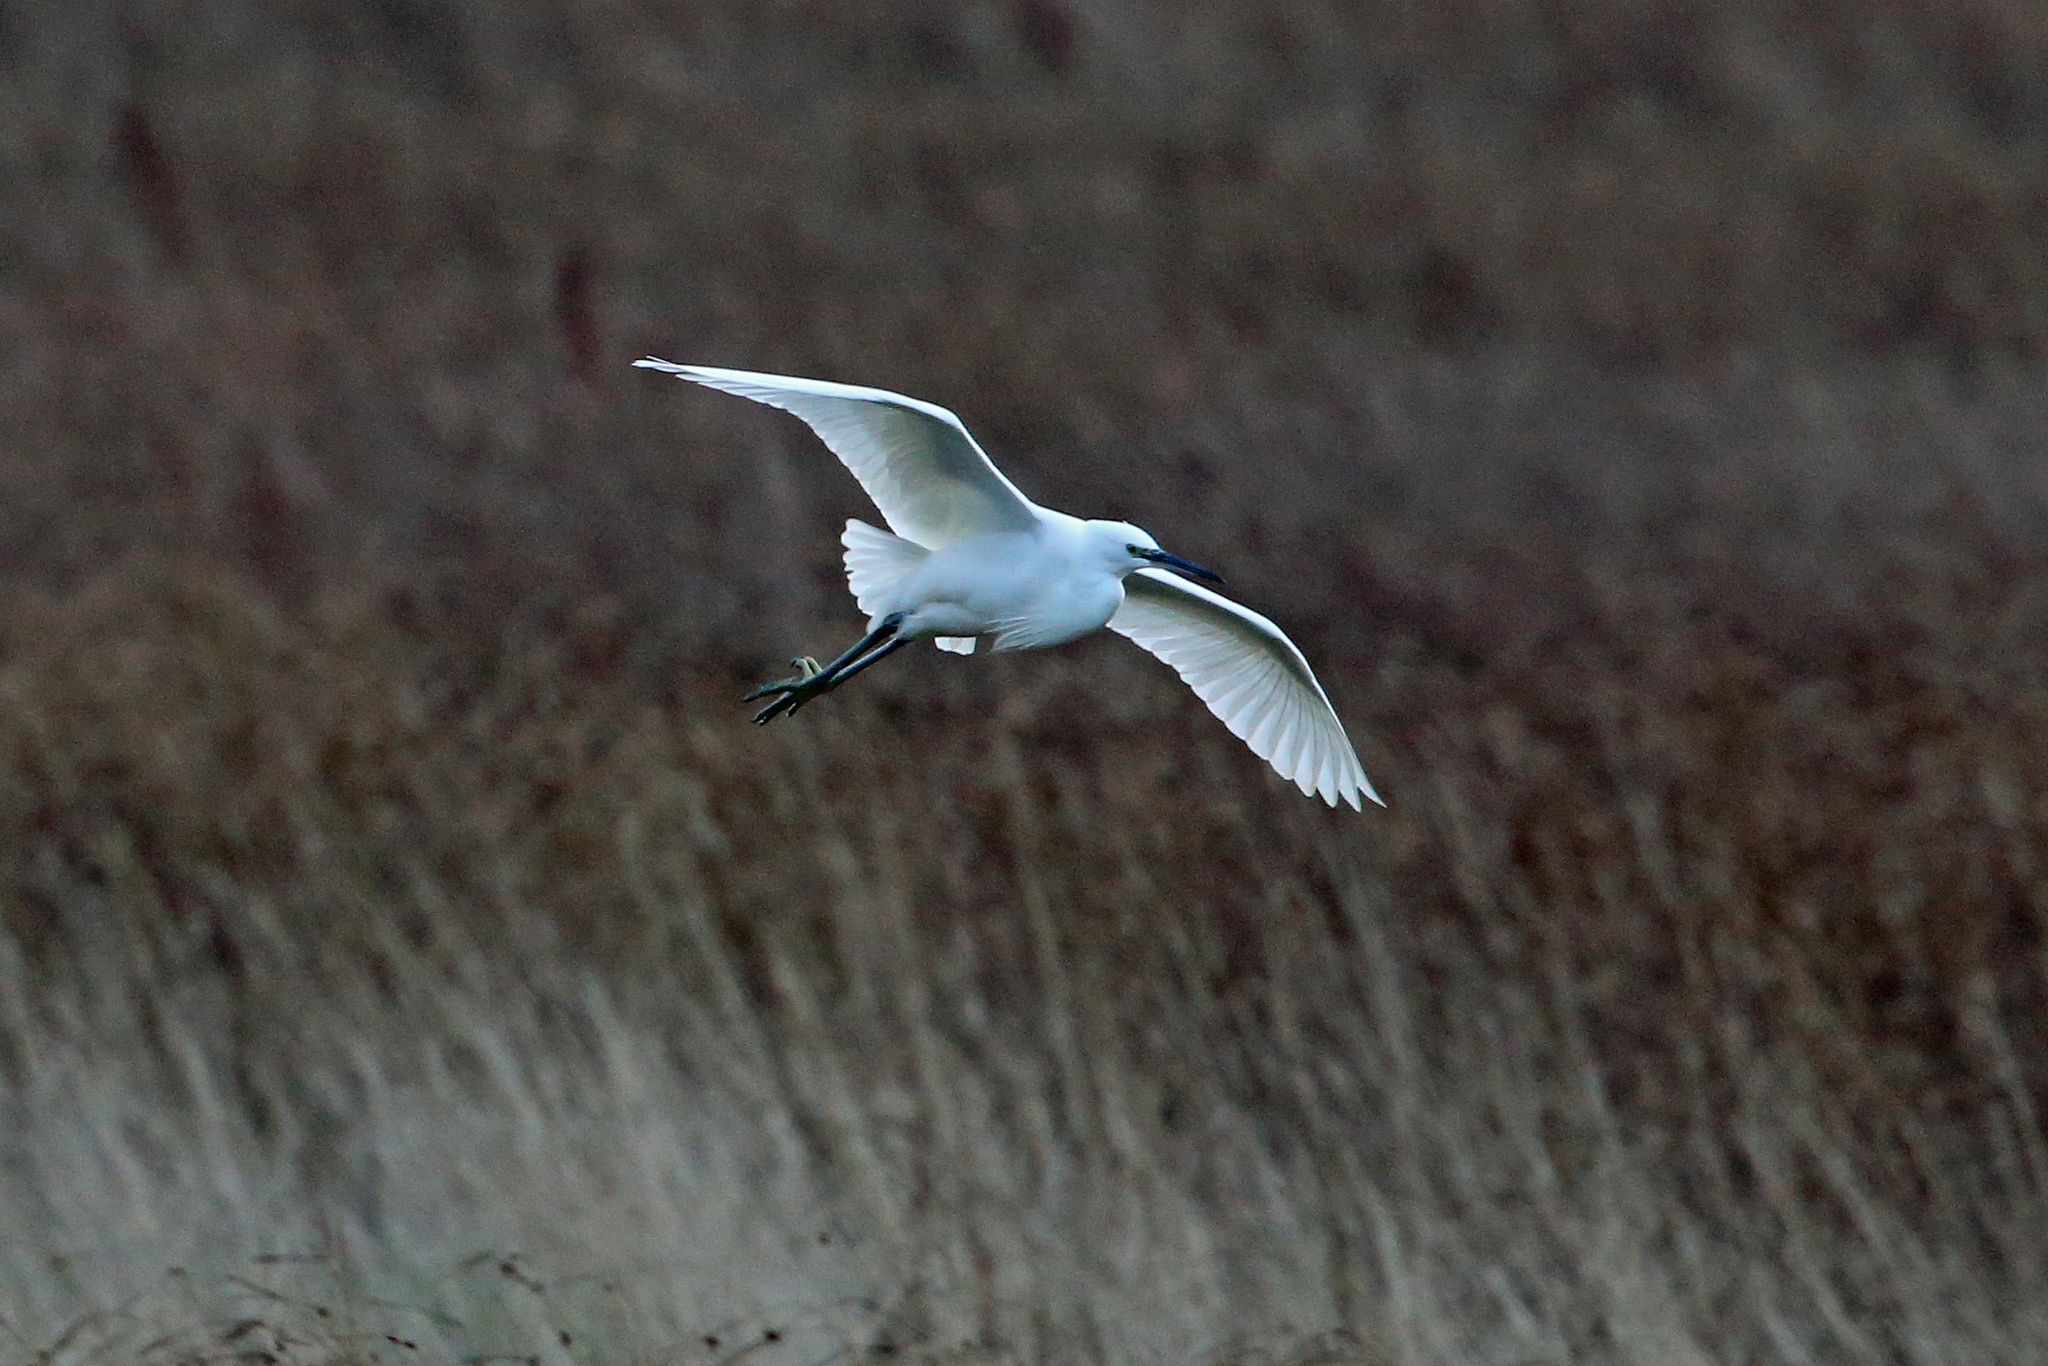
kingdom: Animalia
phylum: Chordata
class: Aves
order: Pelecaniformes
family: Ardeidae
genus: Egretta
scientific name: Egretta garzetta
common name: Little egret
